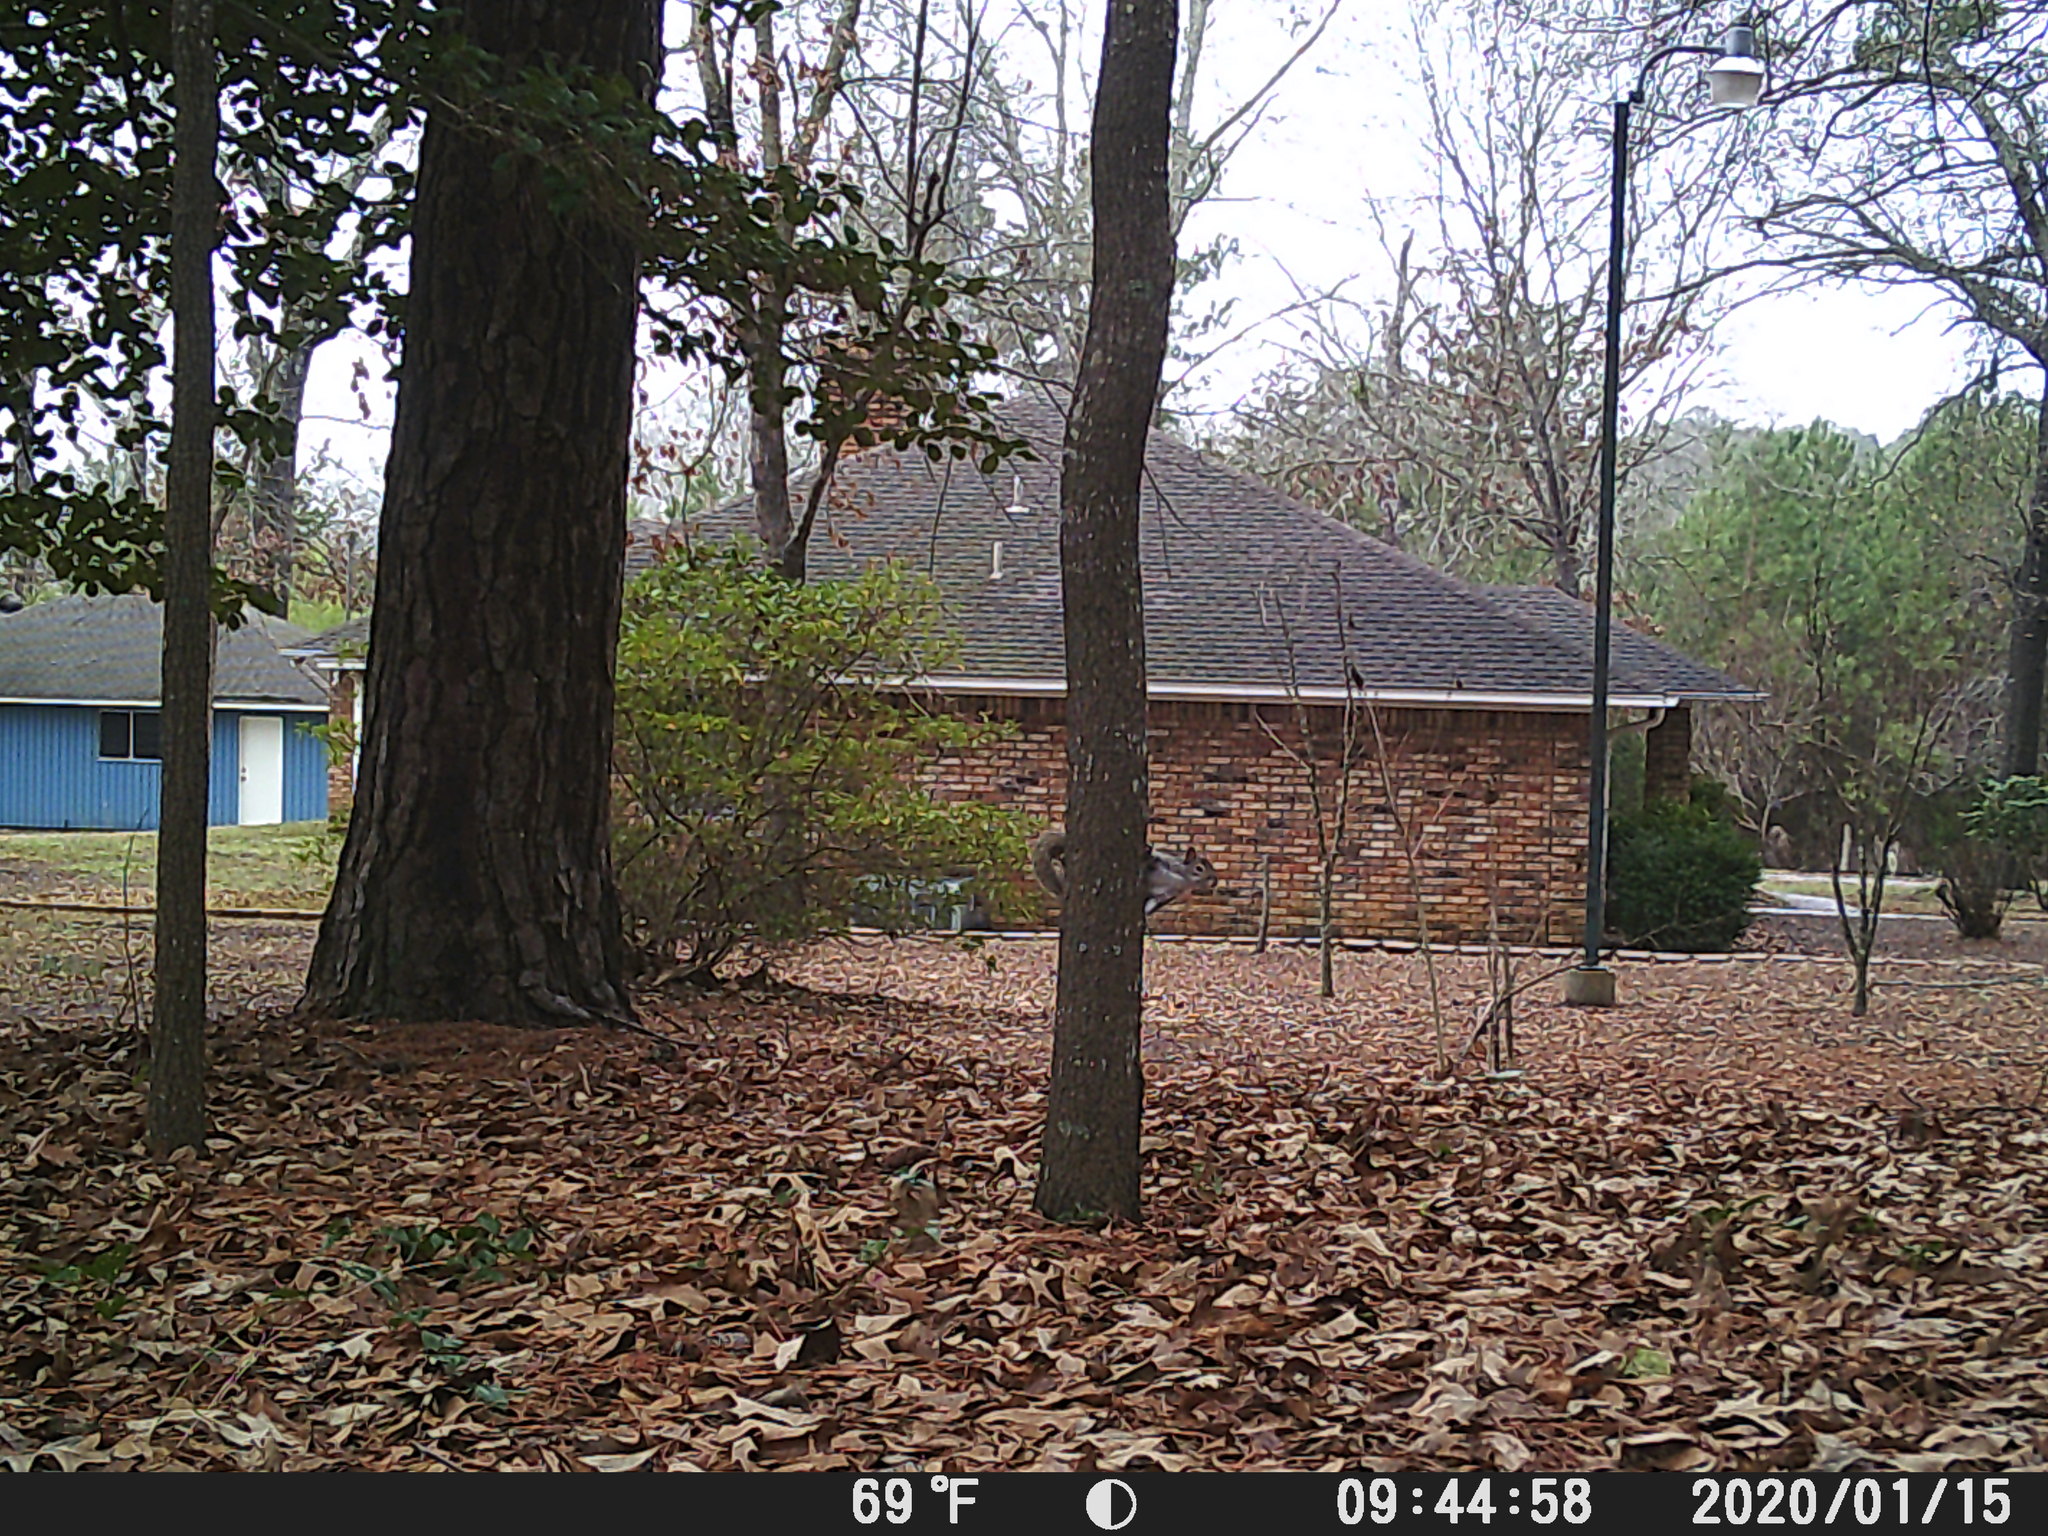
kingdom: Animalia
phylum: Chordata
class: Mammalia
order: Rodentia
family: Sciuridae
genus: Sciurus
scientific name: Sciurus carolinensis
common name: Eastern gray squirrel
